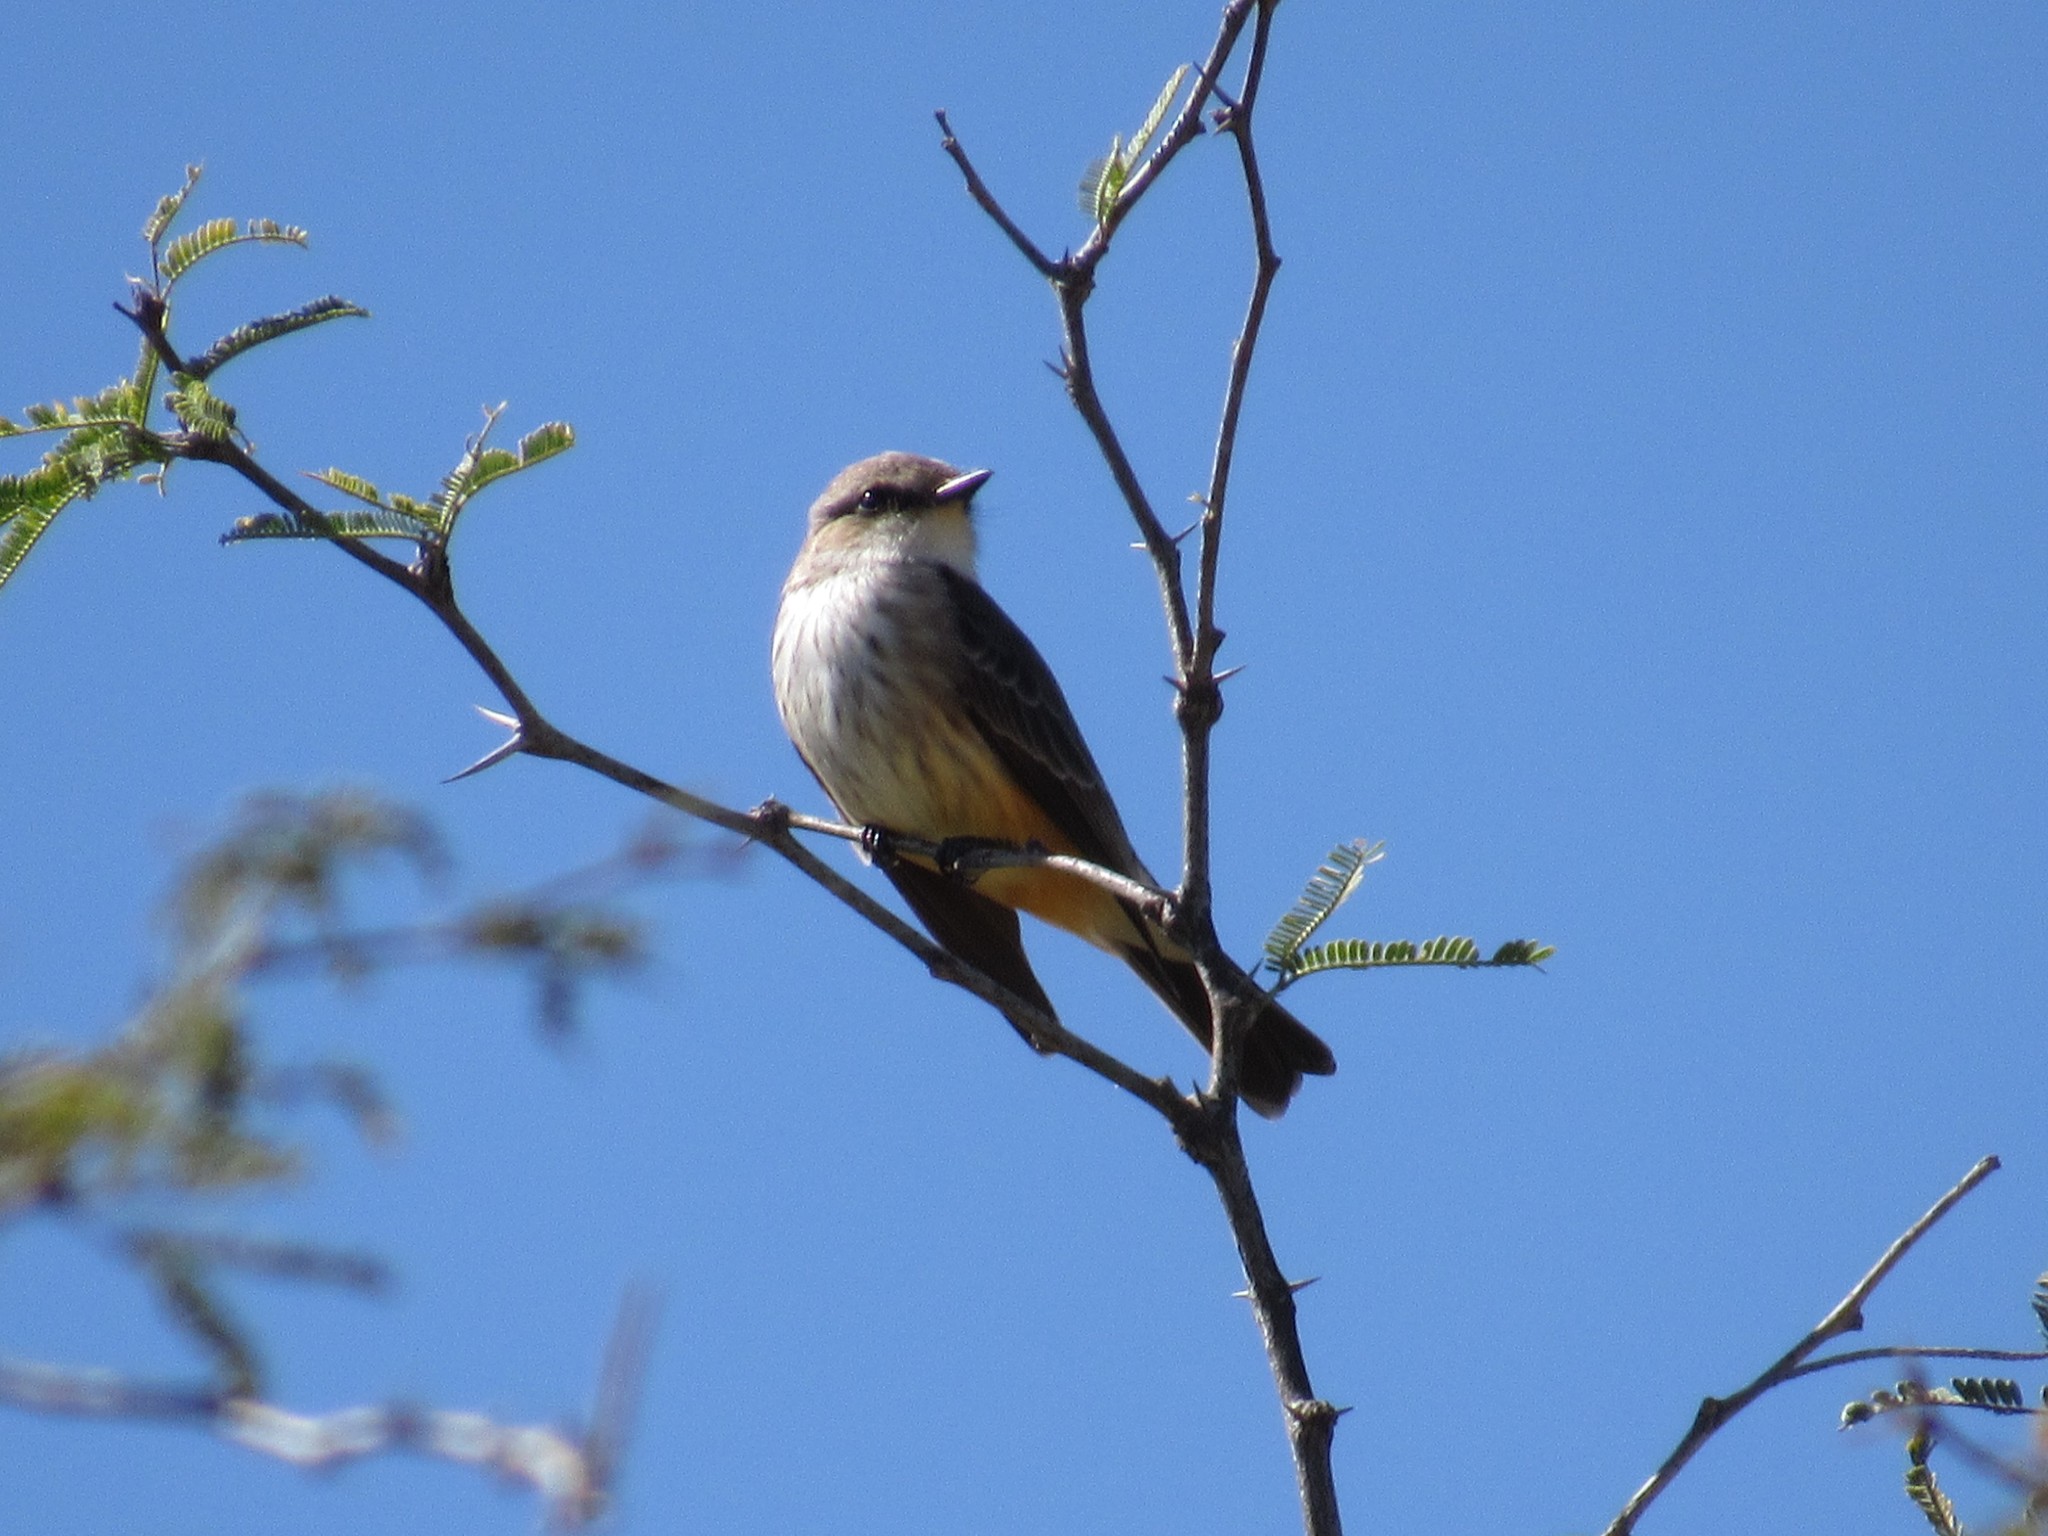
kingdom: Animalia
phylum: Chordata
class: Aves
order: Passeriformes
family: Tyrannidae
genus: Pyrocephalus
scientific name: Pyrocephalus rubinus
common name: Vermilion flycatcher
